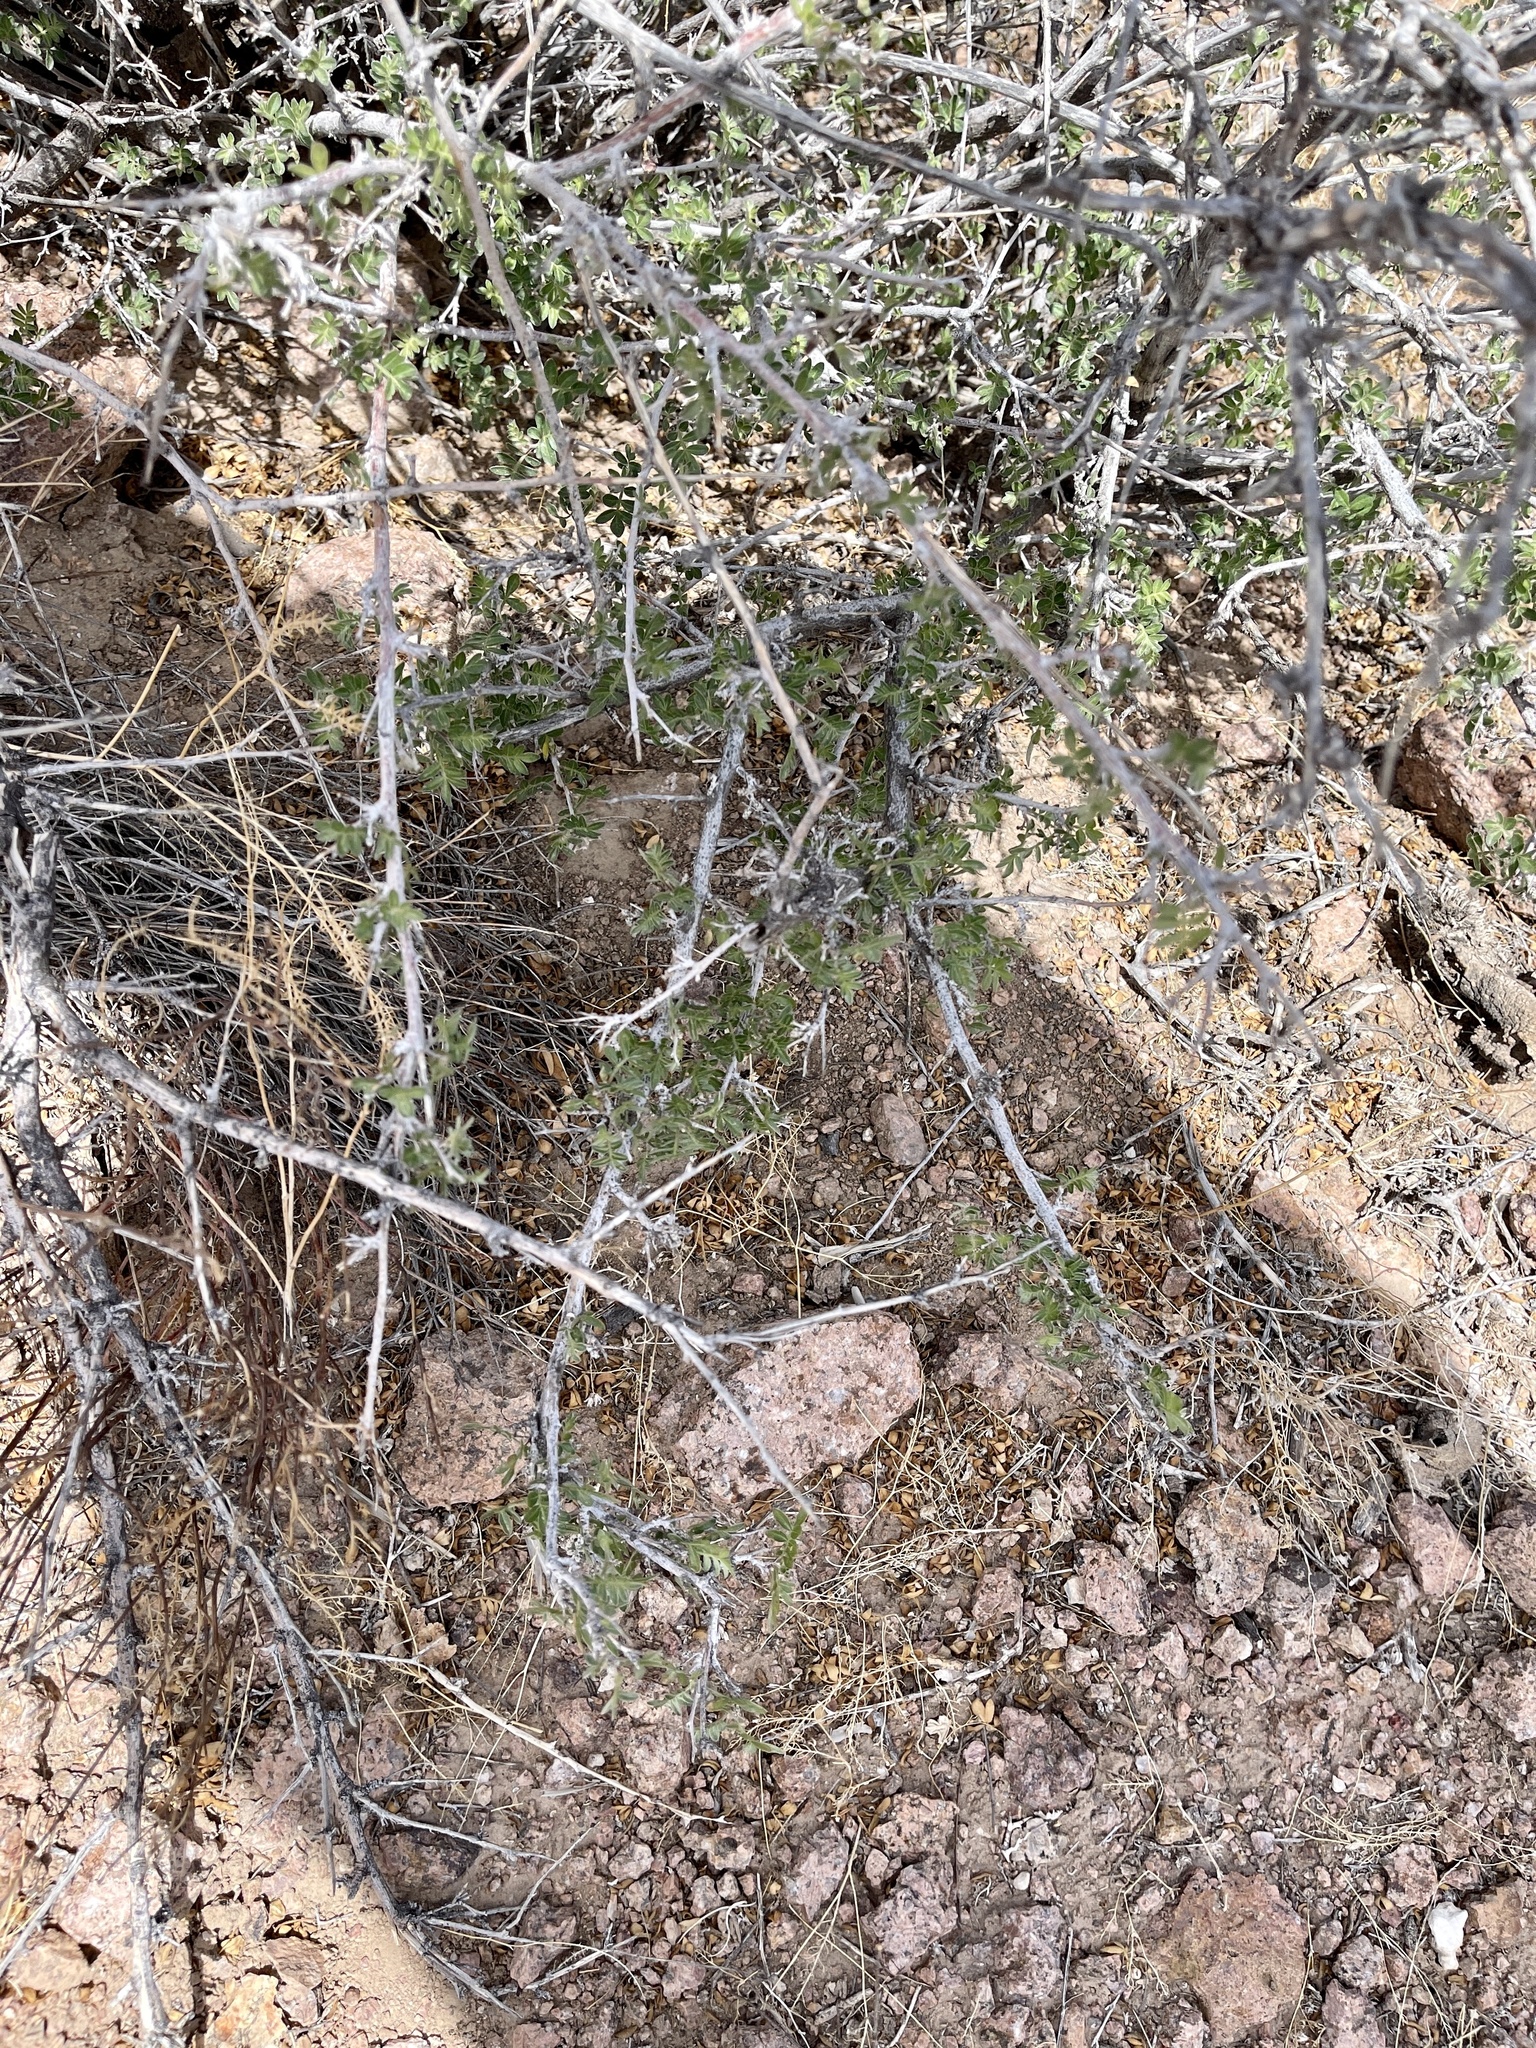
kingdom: Plantae
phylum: Tracheophyta
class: Magnoliopsida
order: Sapindales
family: Anacardiaceae
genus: Rhus
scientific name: Rhus microphylla
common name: Desert sumac
